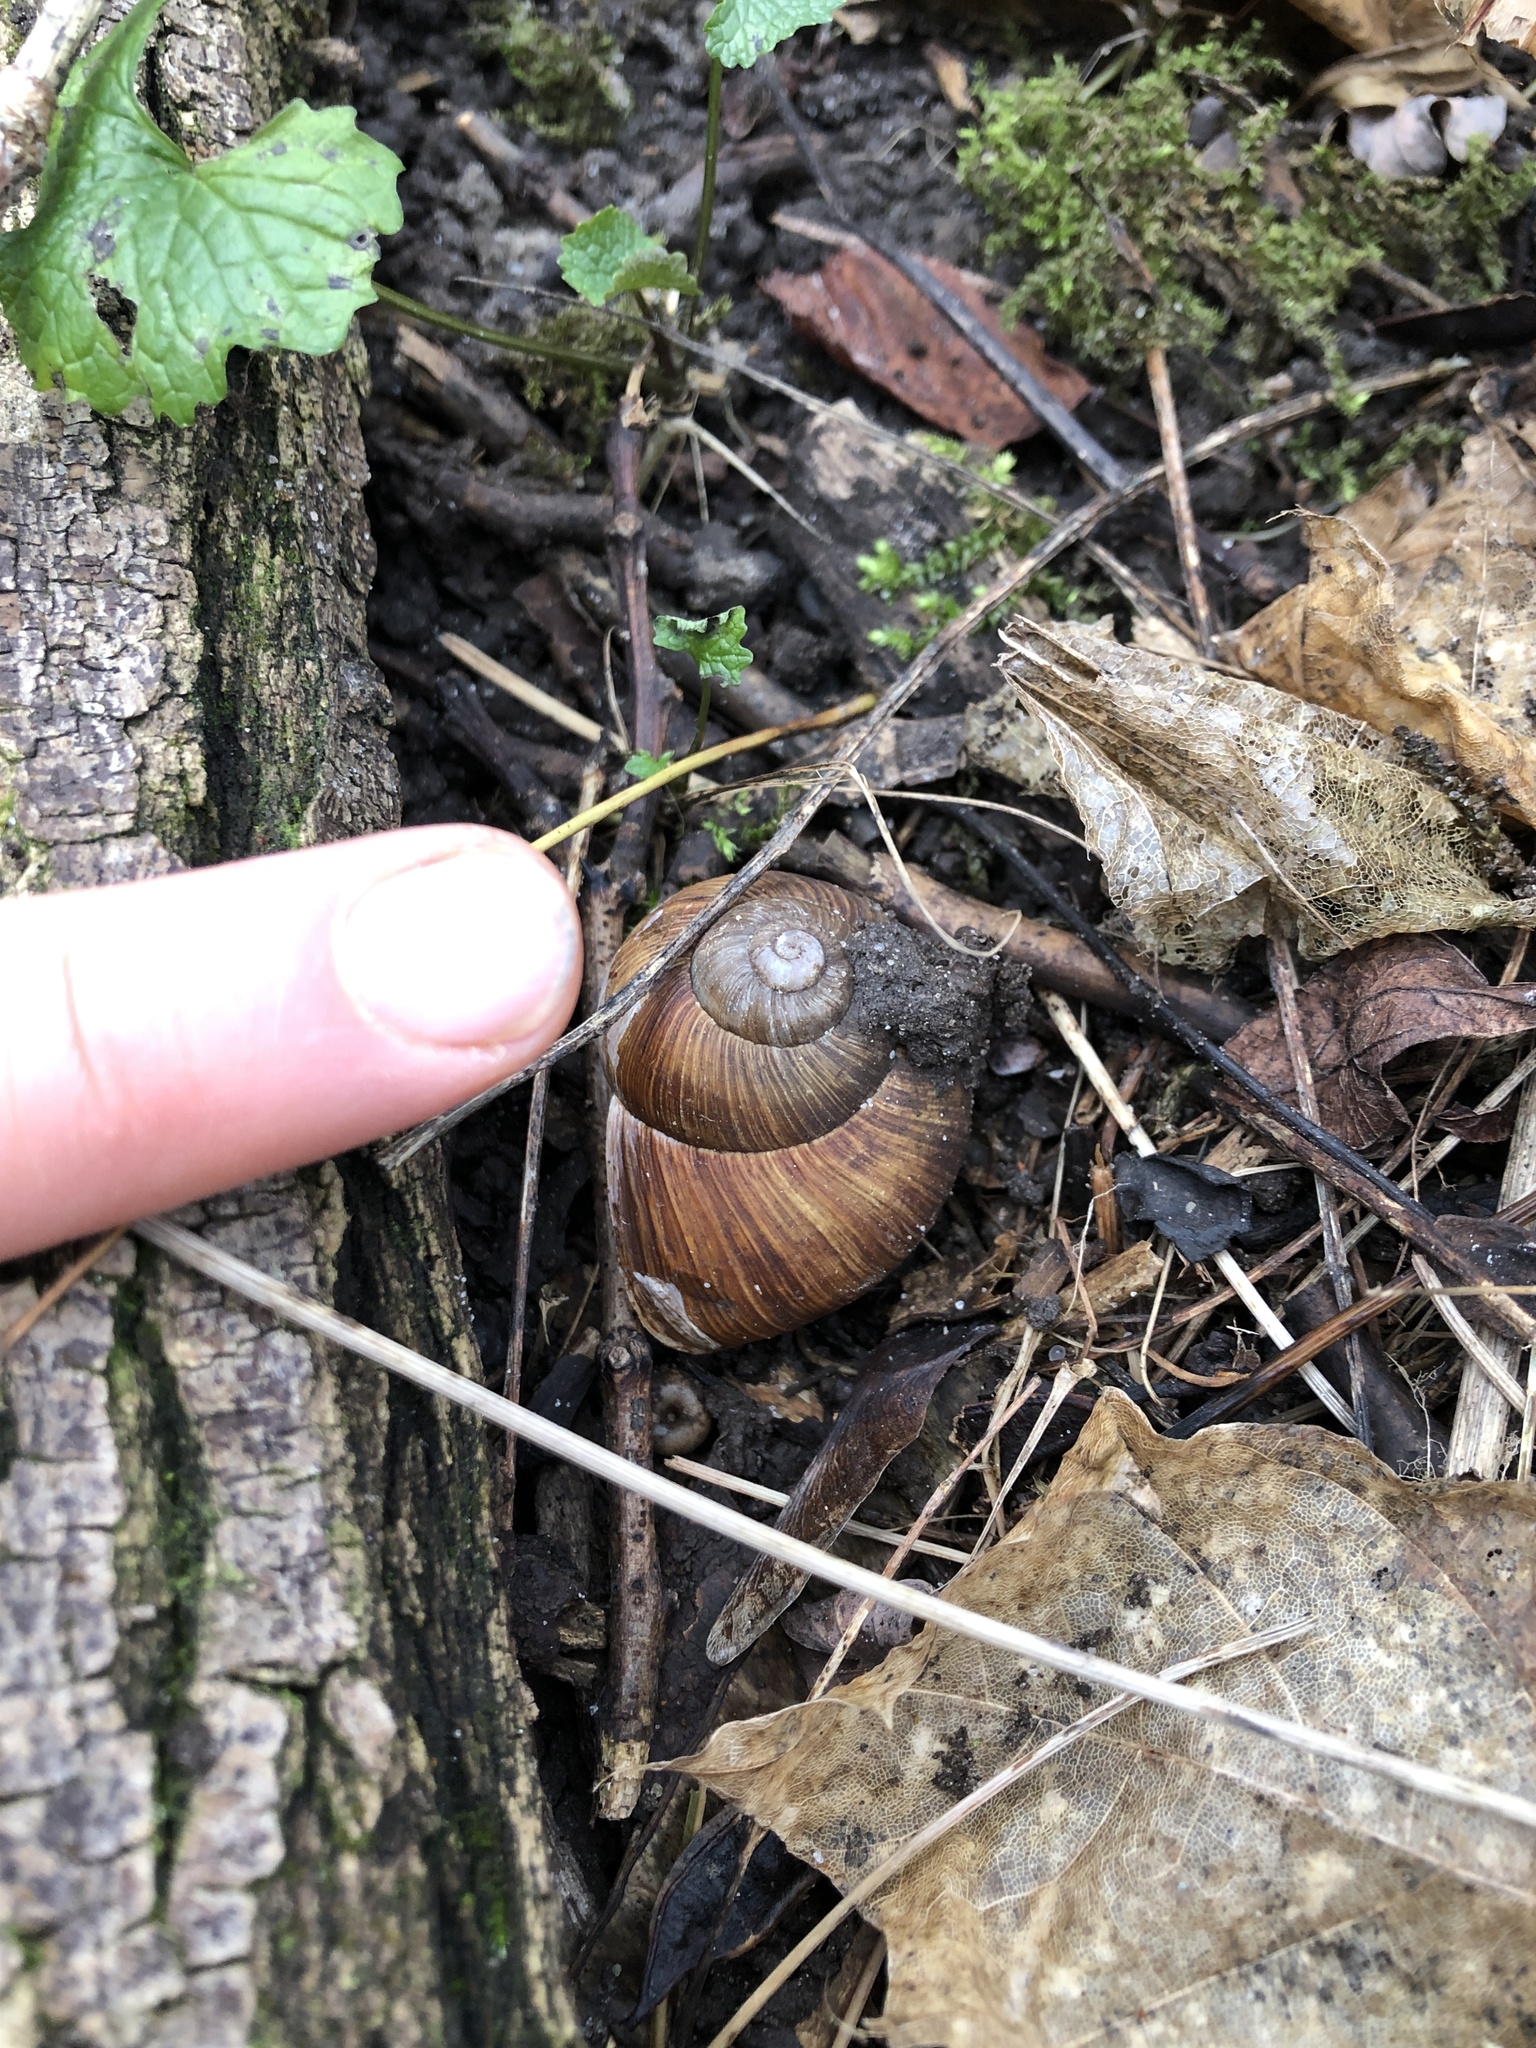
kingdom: Animalia
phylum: Mollusca
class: Gastropoda
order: Stylommatophora
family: Helicidae
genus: Helix
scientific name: Helix pomatia
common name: Roman snail
